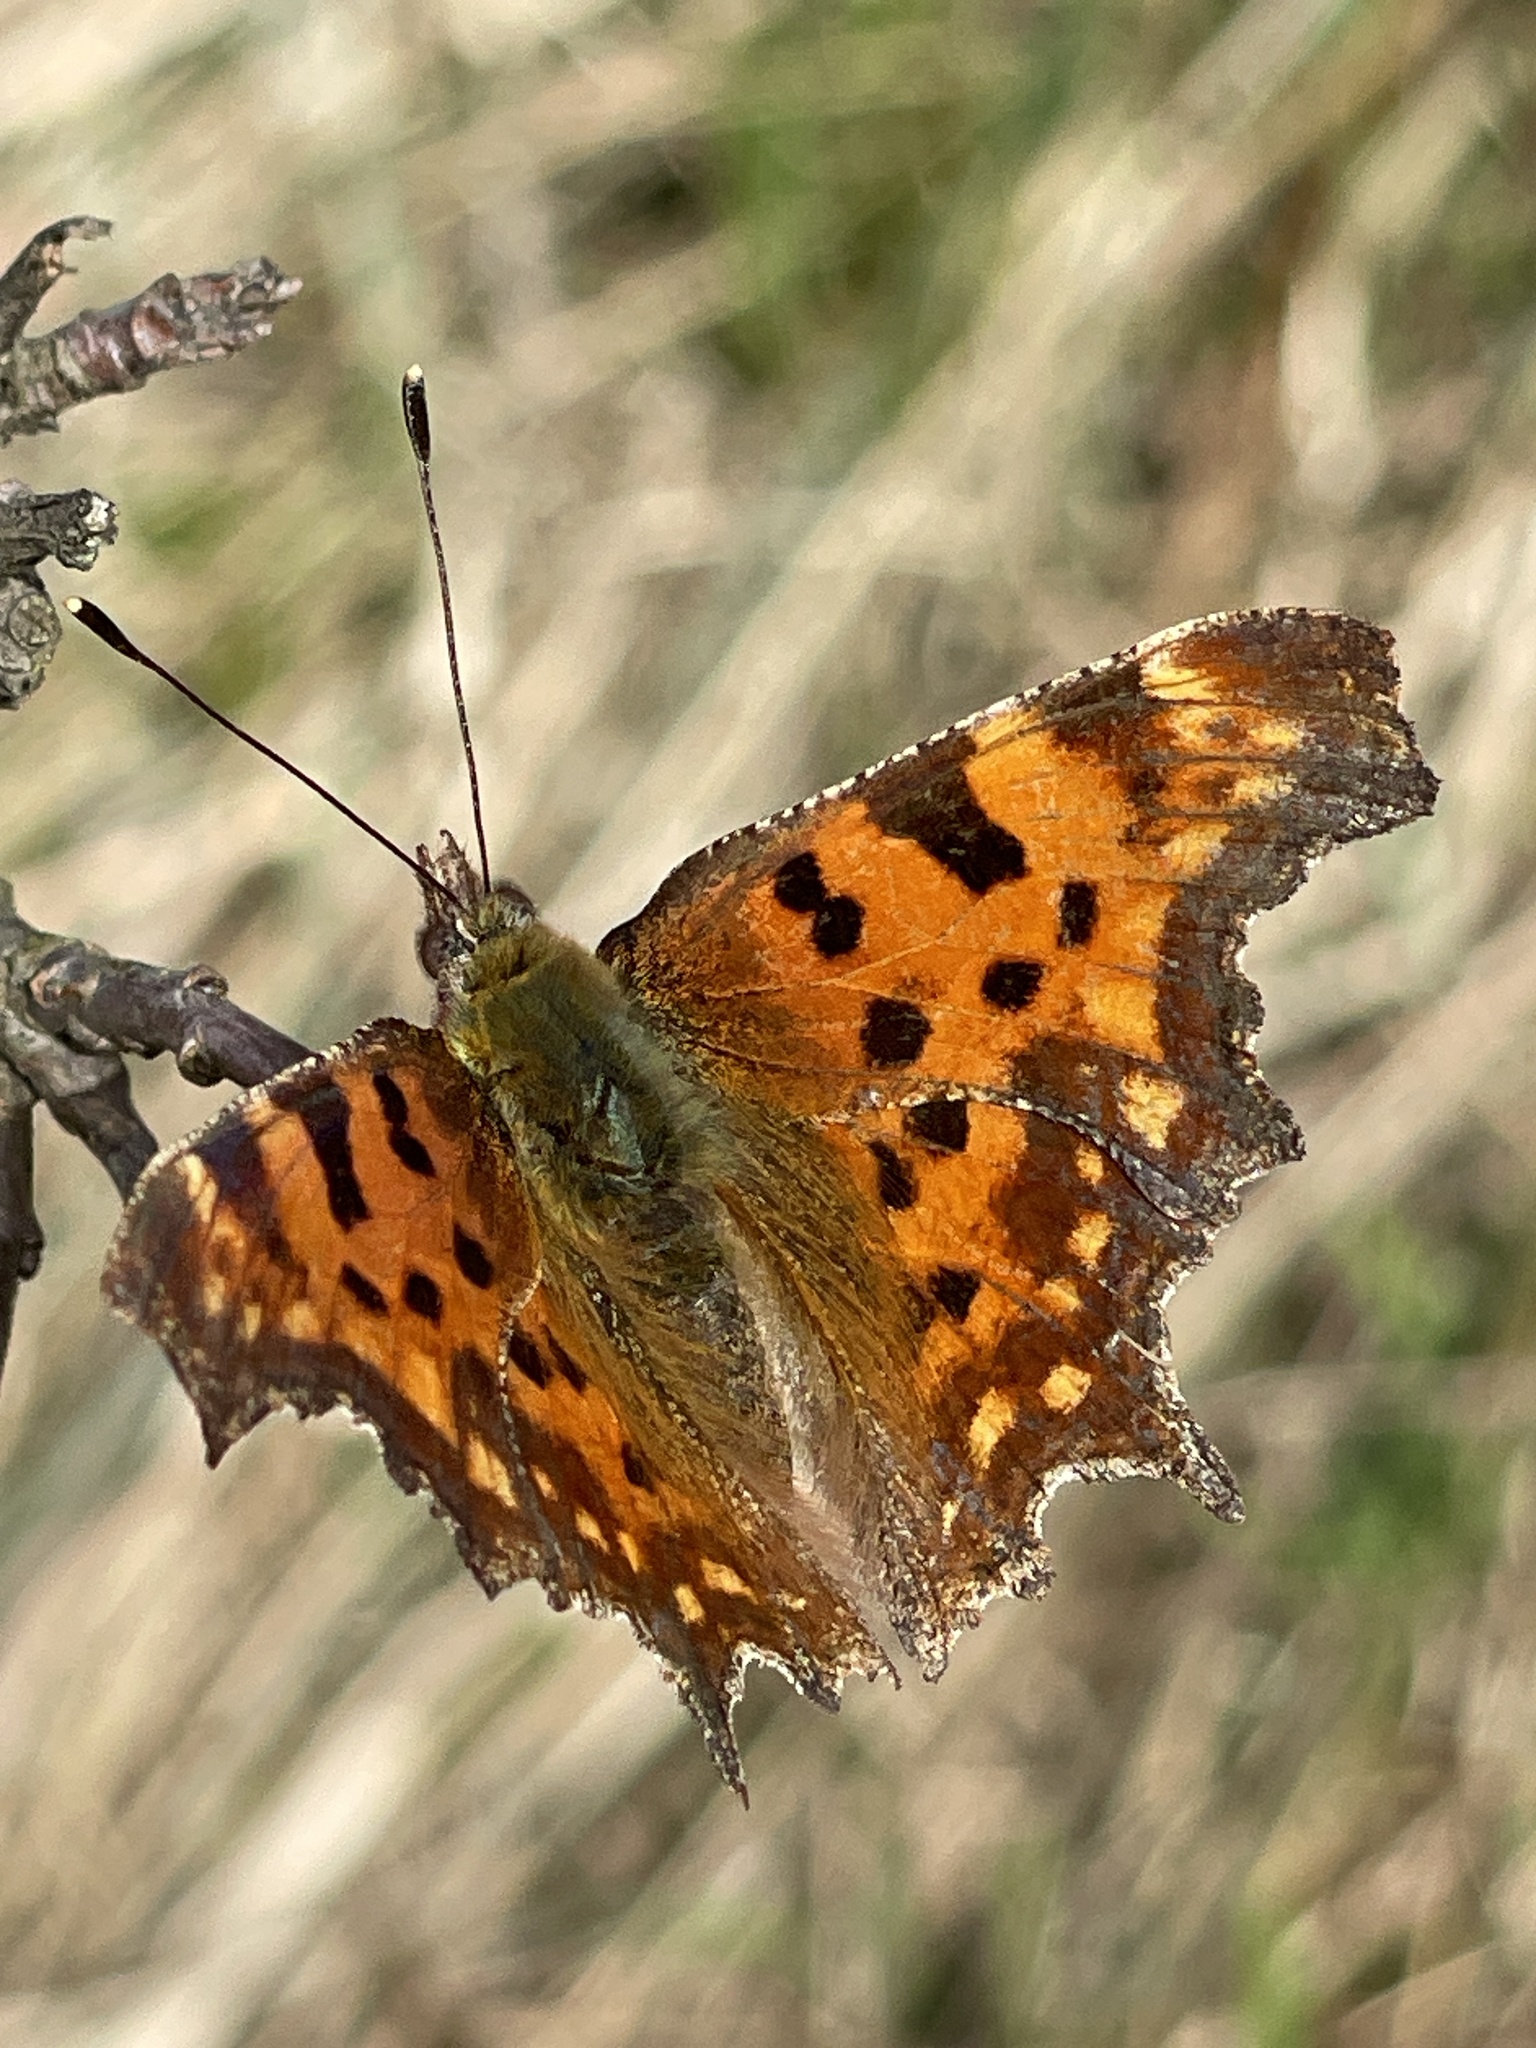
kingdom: Animalia
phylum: Arthropoda
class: Insecta
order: Lepidoptera
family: Nymphalidae
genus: Polygonia
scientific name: Polygonia c-album
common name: Comma
